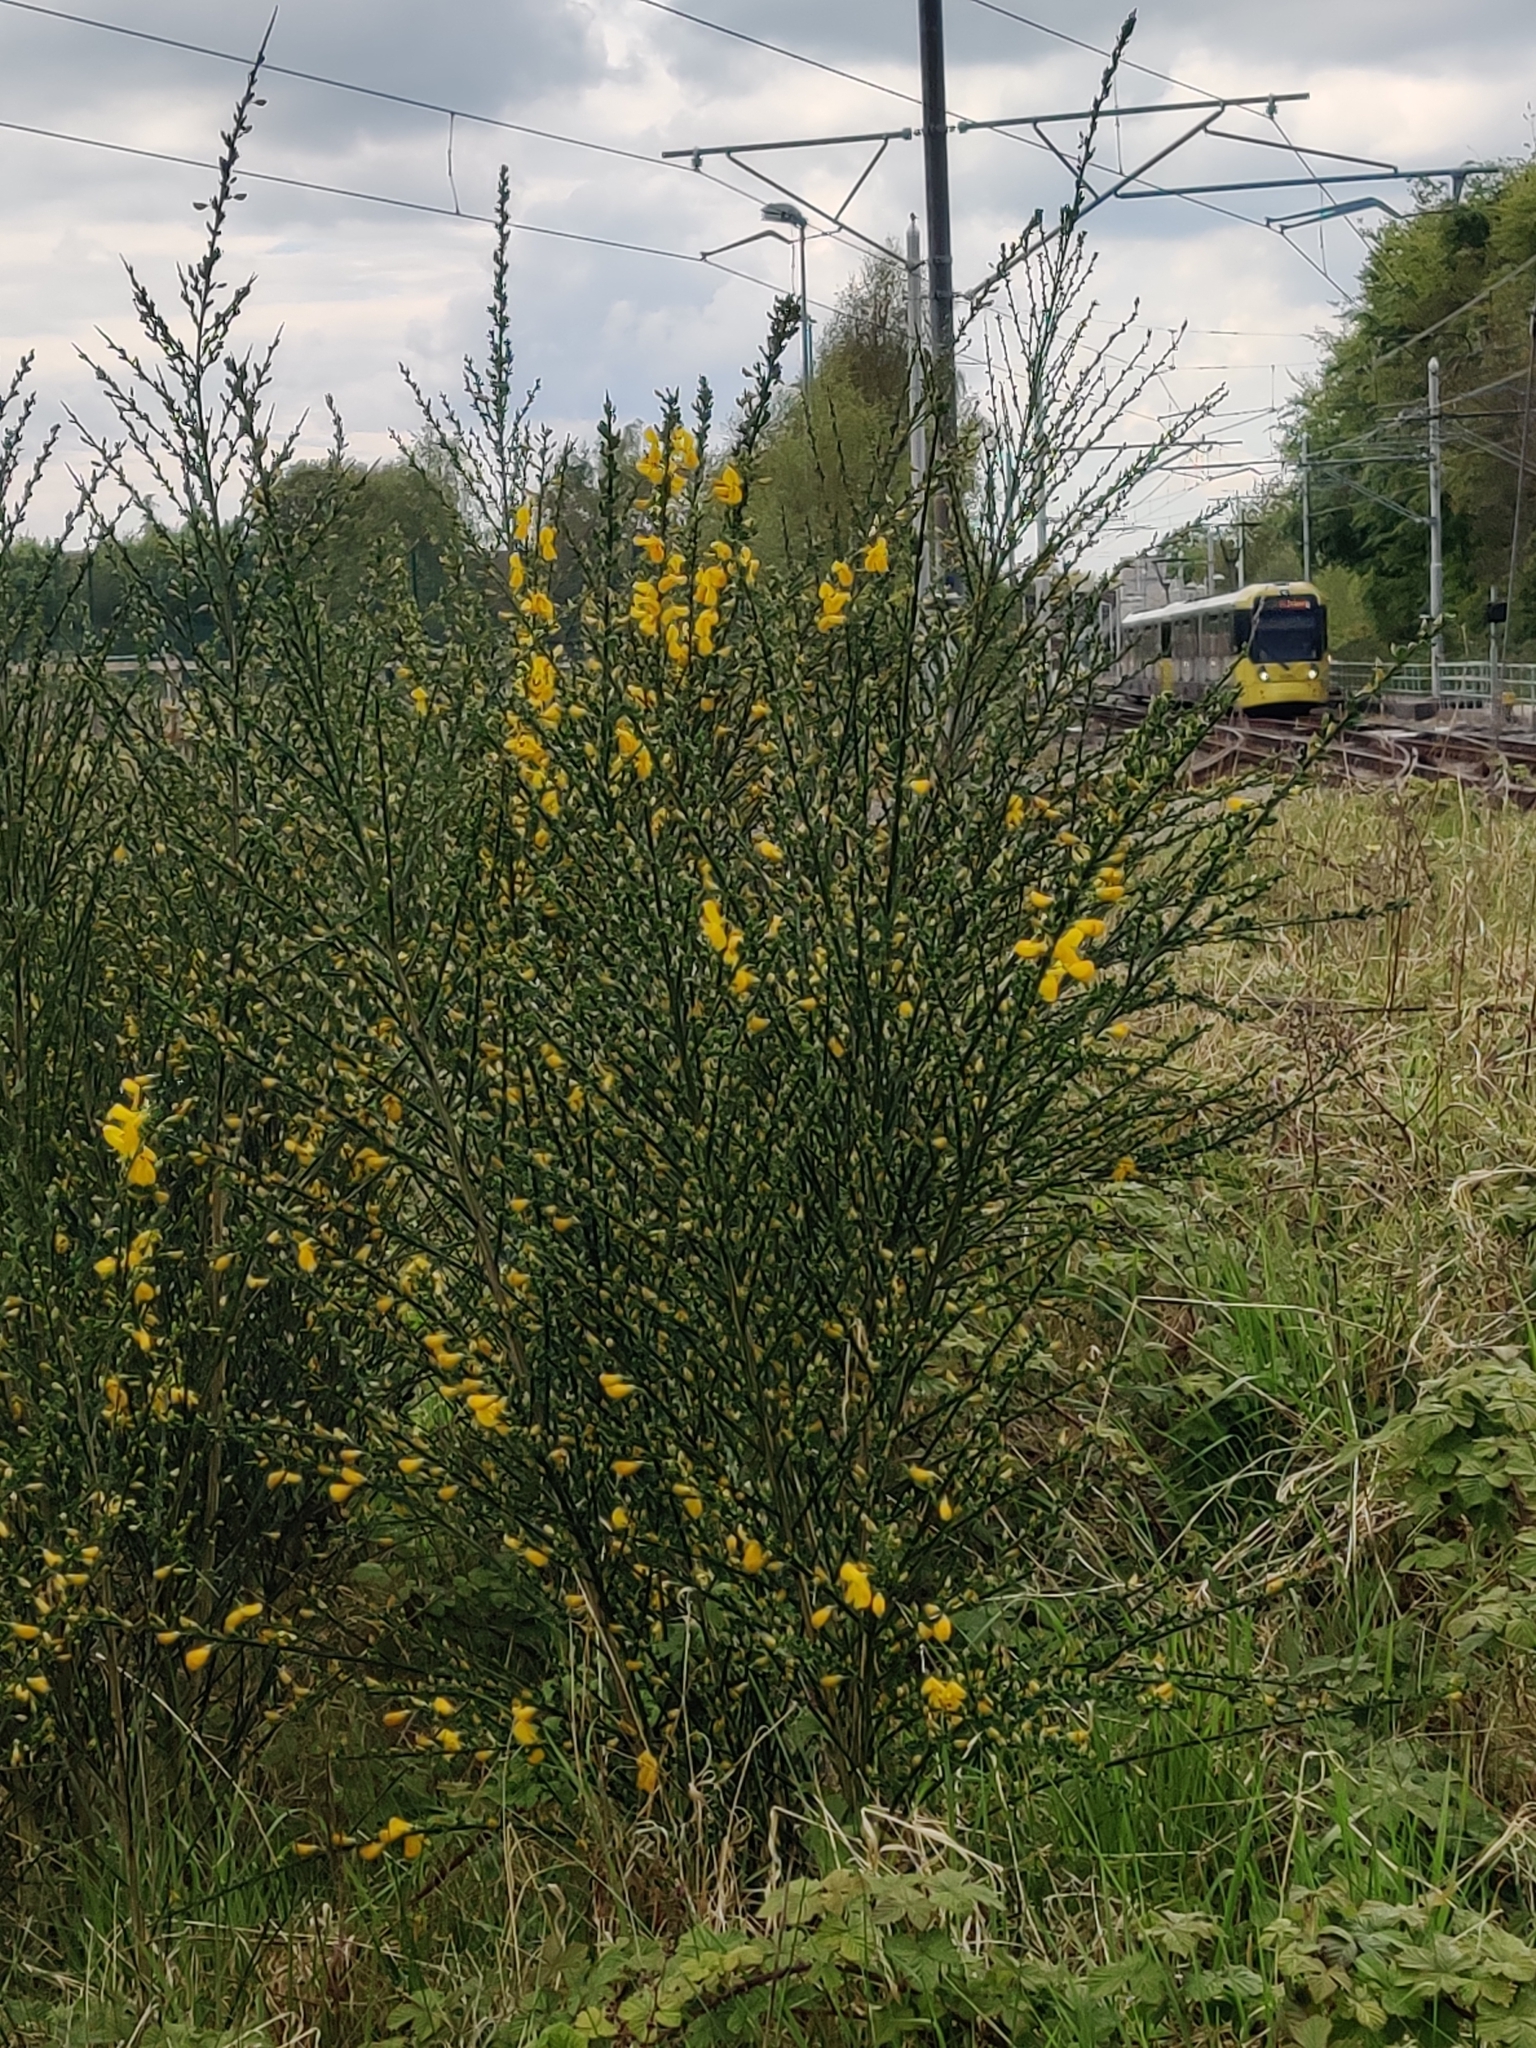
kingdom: Plantae
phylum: Tracheophyta
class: Magnoliopsida
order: Fabales
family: Fabaceae
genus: Cytisus
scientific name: Cytisus scoparius
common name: Scotch broom
